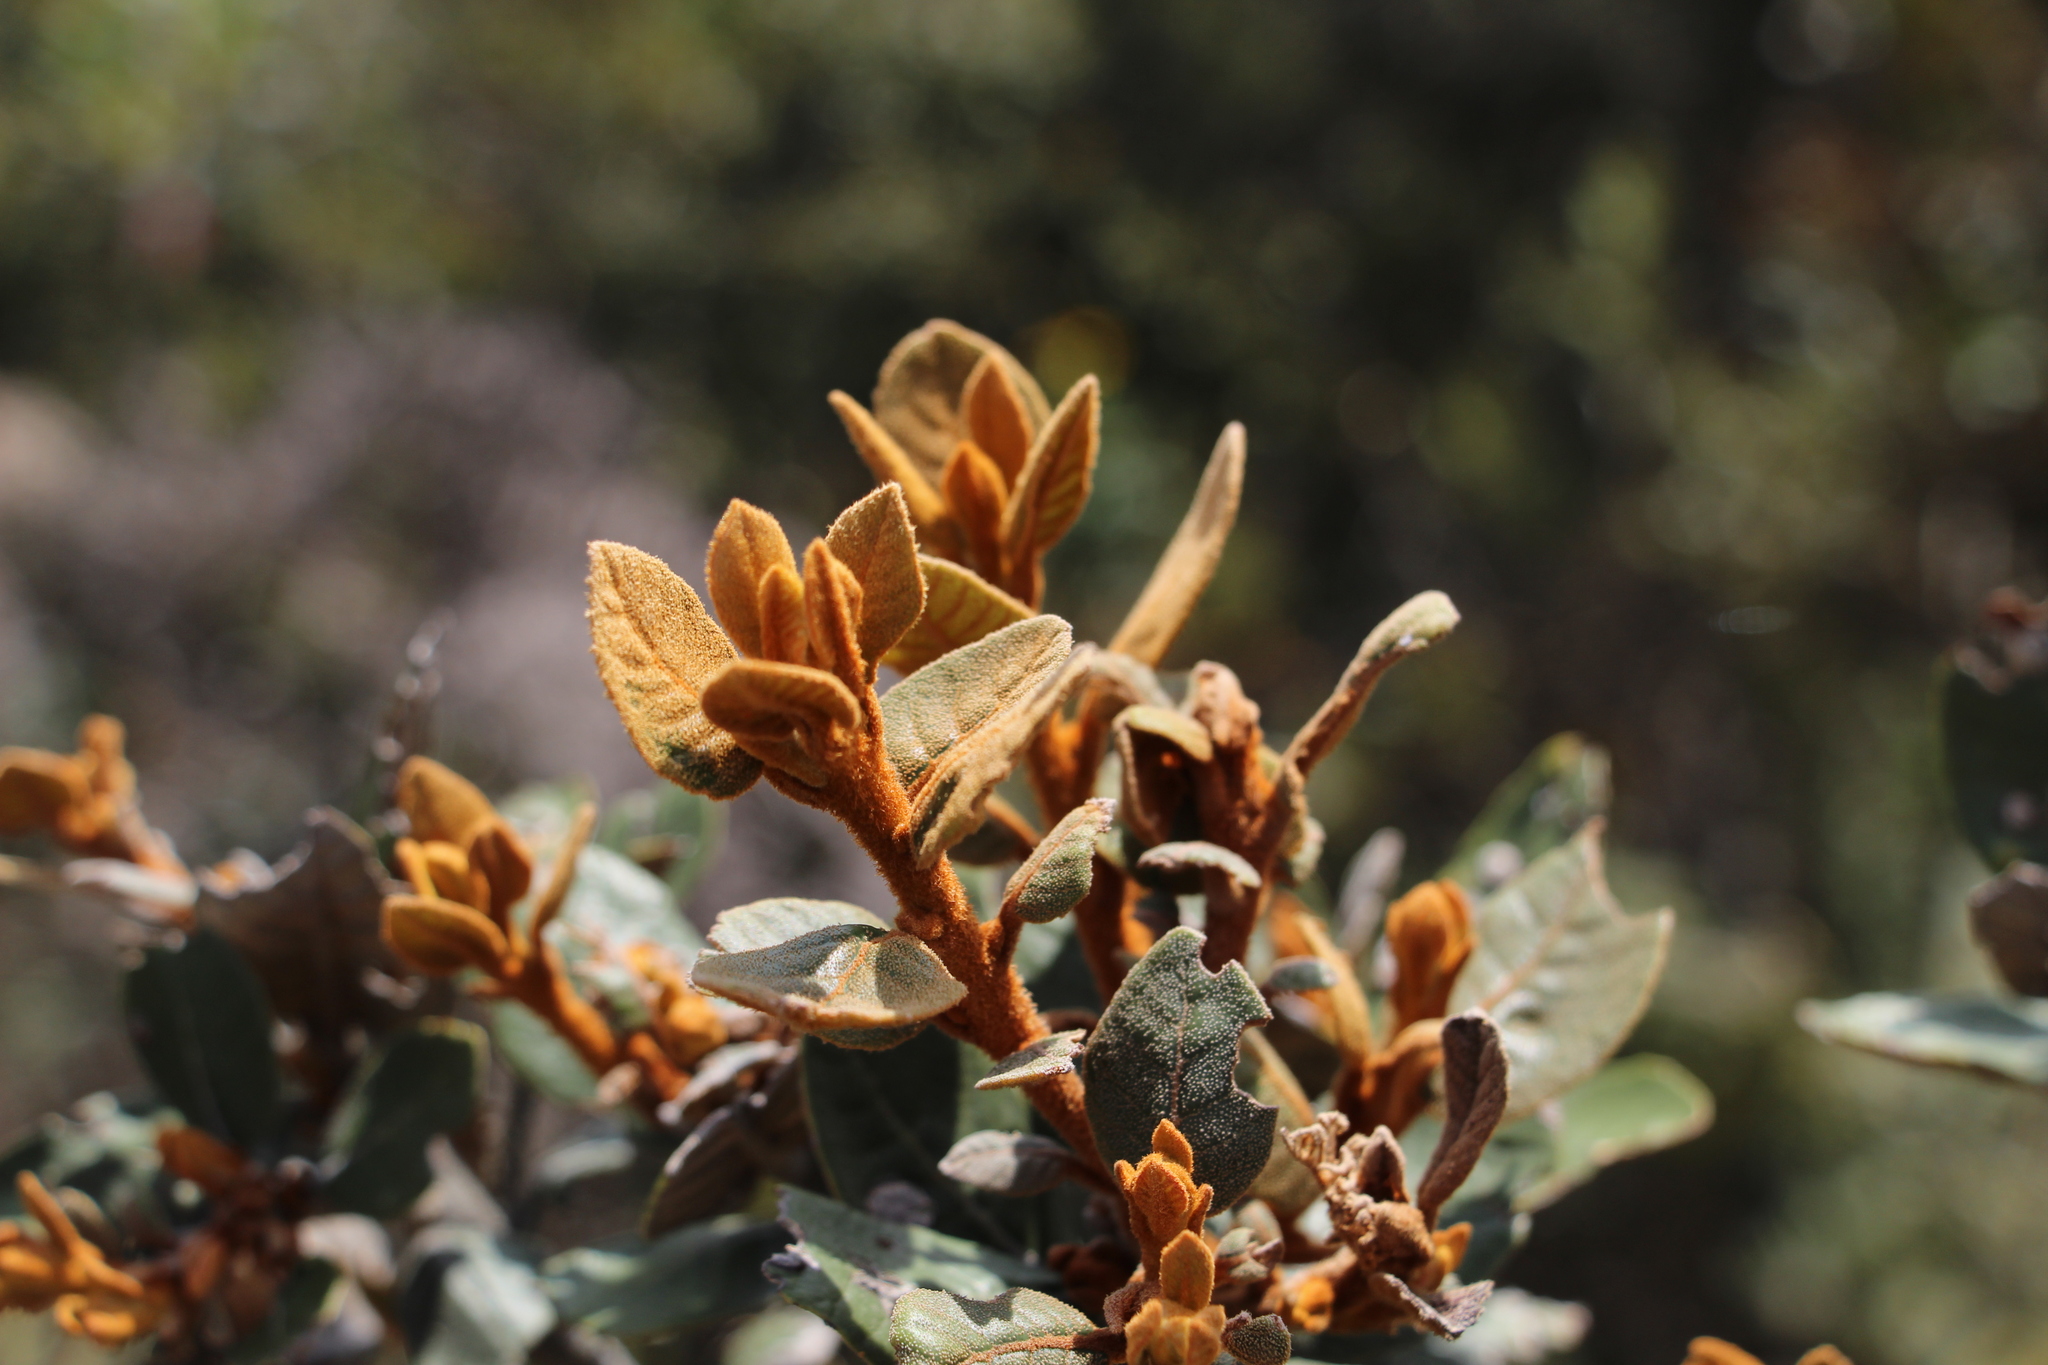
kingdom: Plantae
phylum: Tracheophyta
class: Magnoliopsida
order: Ericales
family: Clethraceae
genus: Clethra
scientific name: Clethra fimbriata
